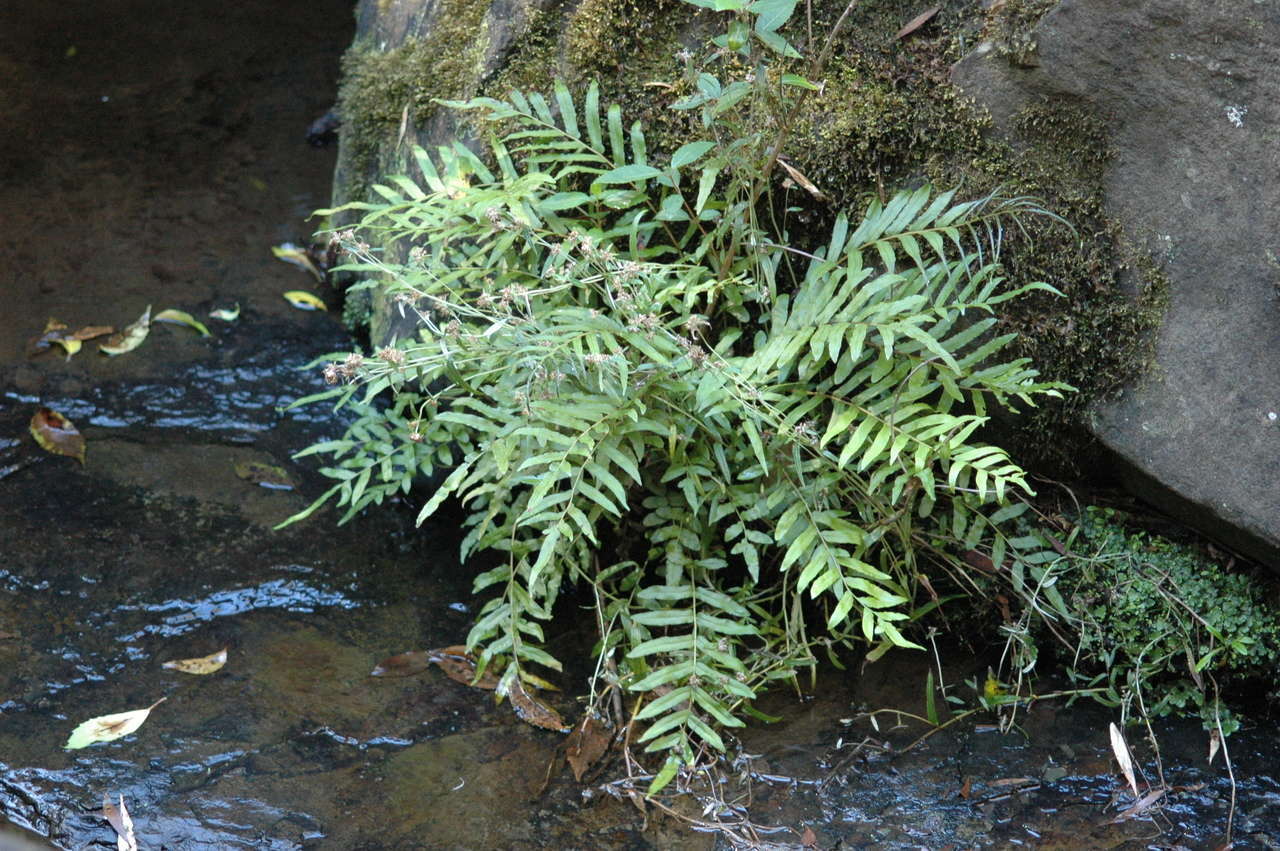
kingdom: Plantae
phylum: Tracheophyta
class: Polypodiopsida
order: Polypodiales
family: Blechnaceae
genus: Parablechnum
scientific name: Parablechnum minus
